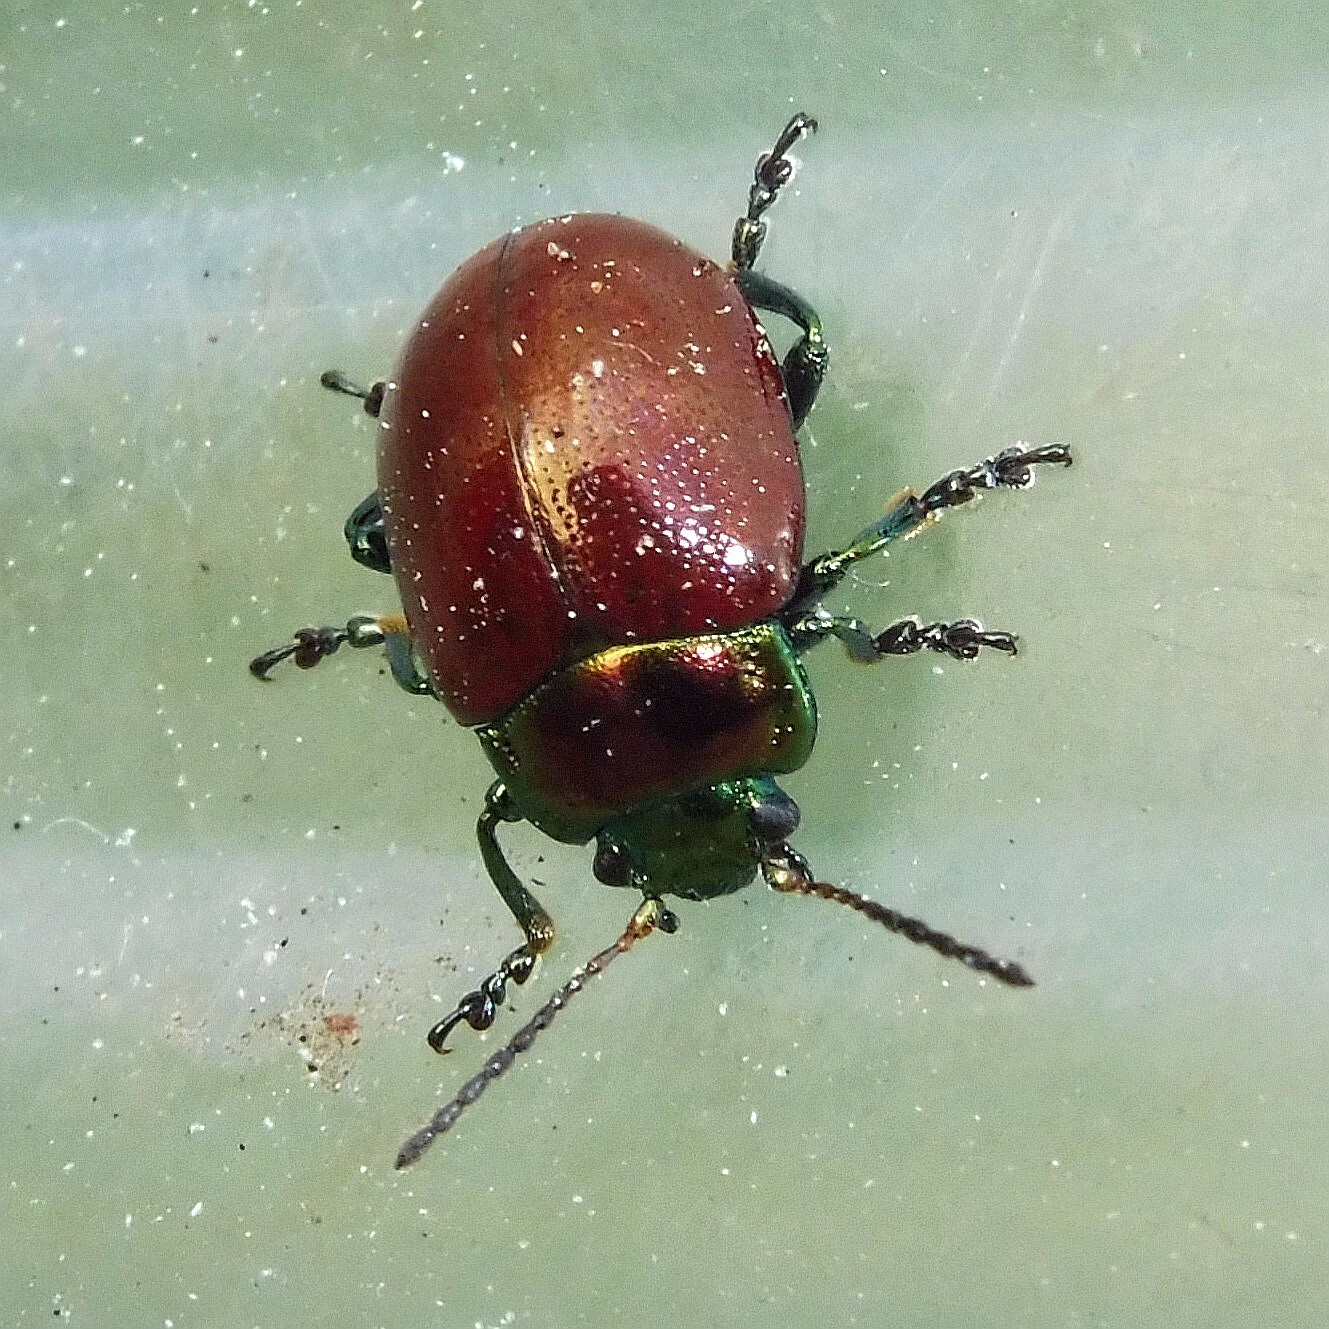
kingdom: Animalia
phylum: Arthropoda
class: Insecta
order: Coleoptera
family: Chrysomelidae
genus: Chrysomela
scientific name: Chrysomela polita
